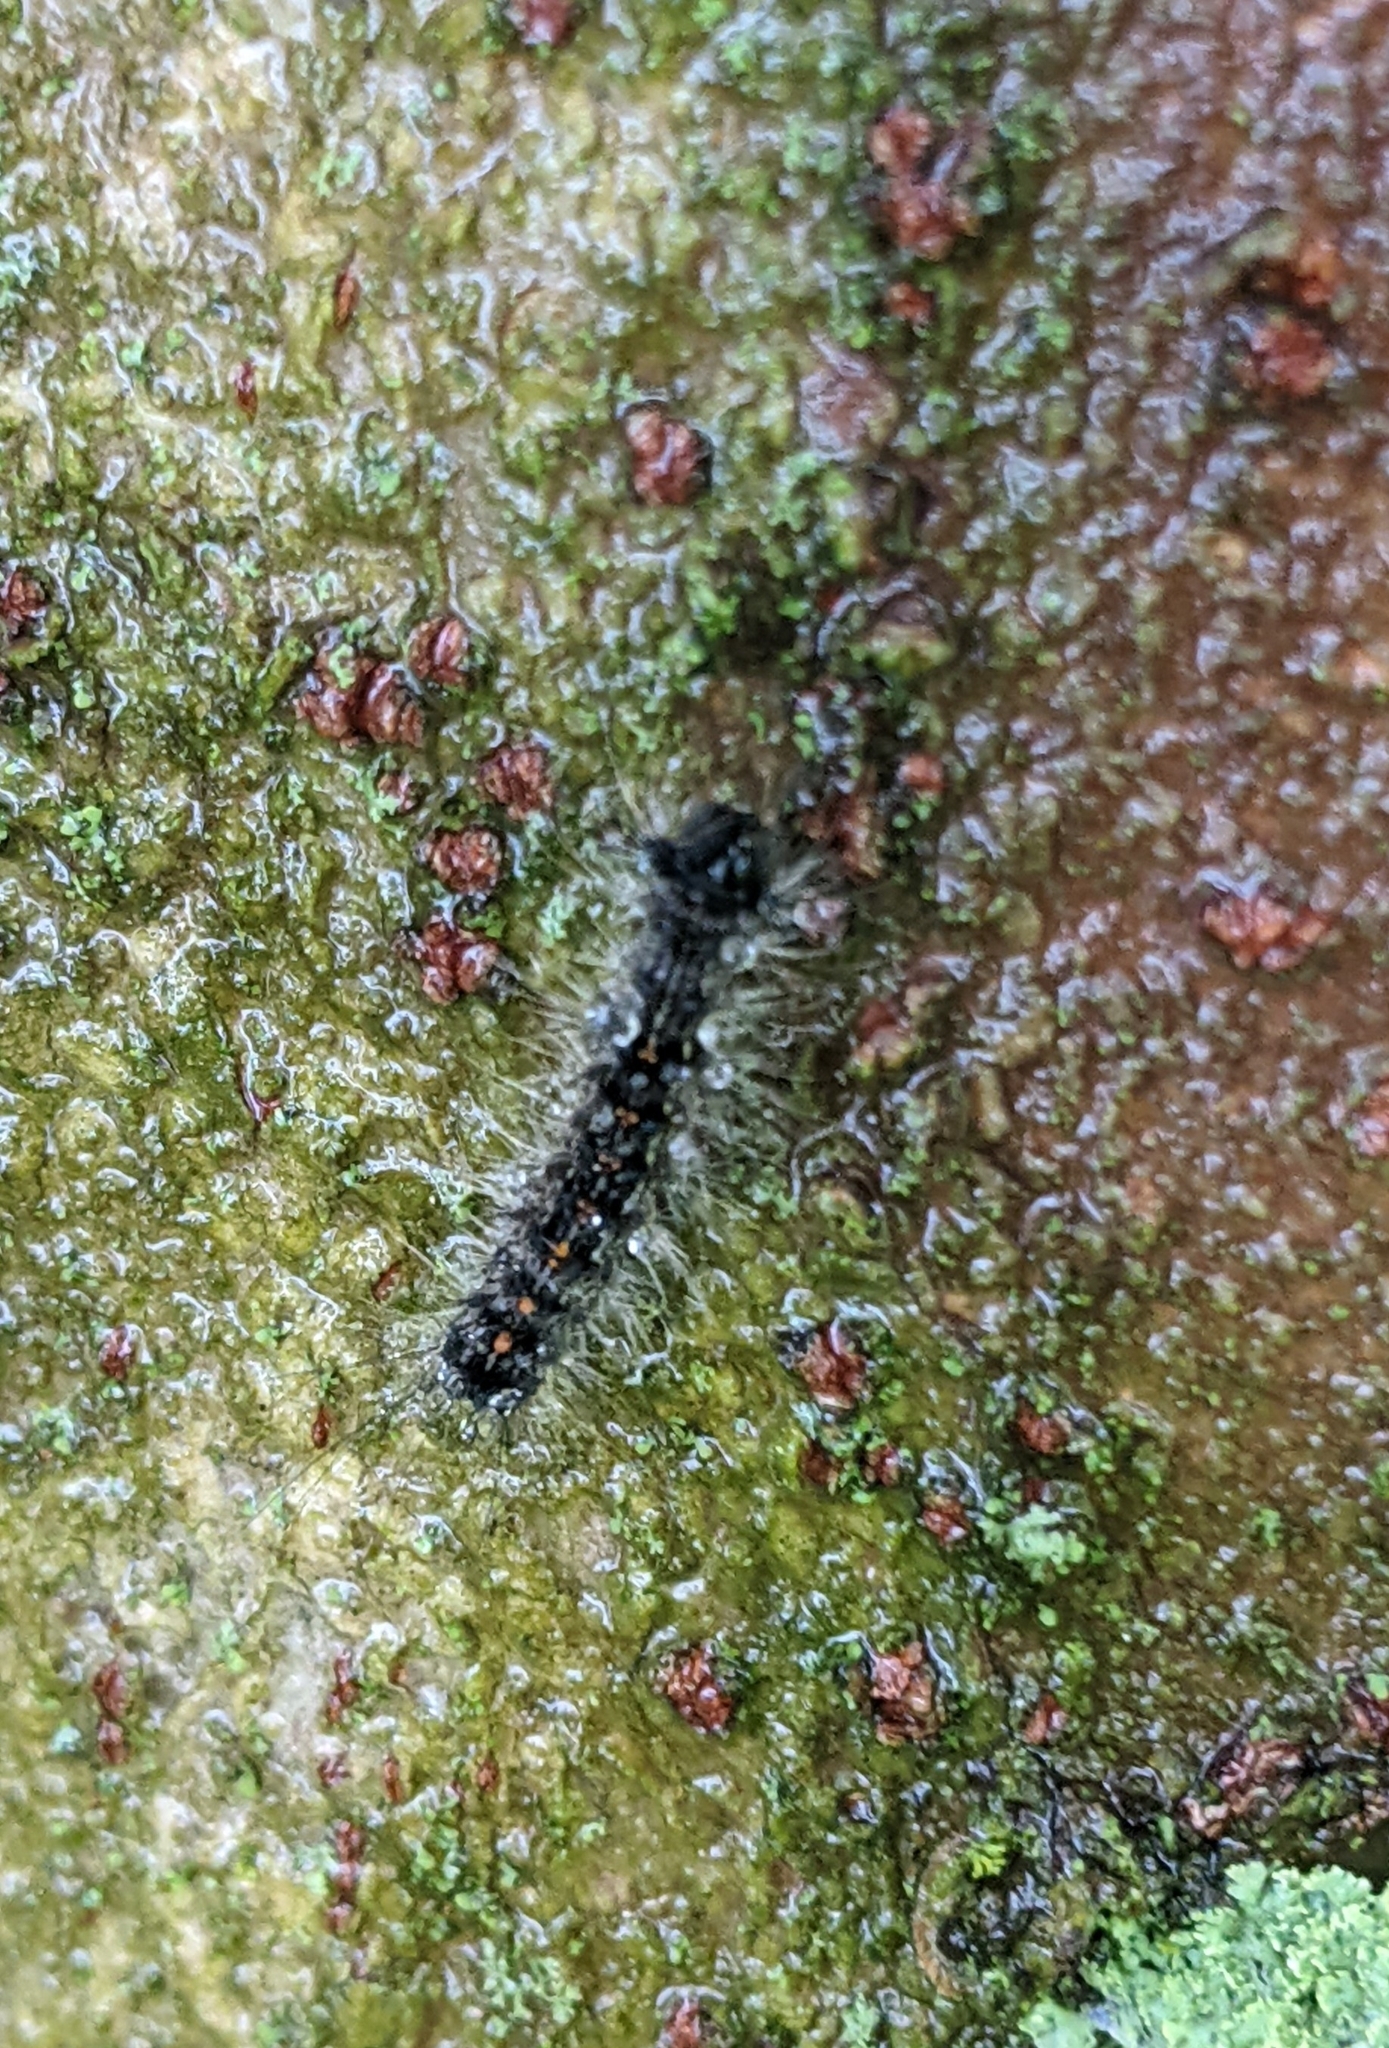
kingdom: Animalia
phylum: Arthropoda
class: Insecta
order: Lepidoptera
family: Erebidae
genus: Lymantria
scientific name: Lymantria dispar
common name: Gypsy moth
